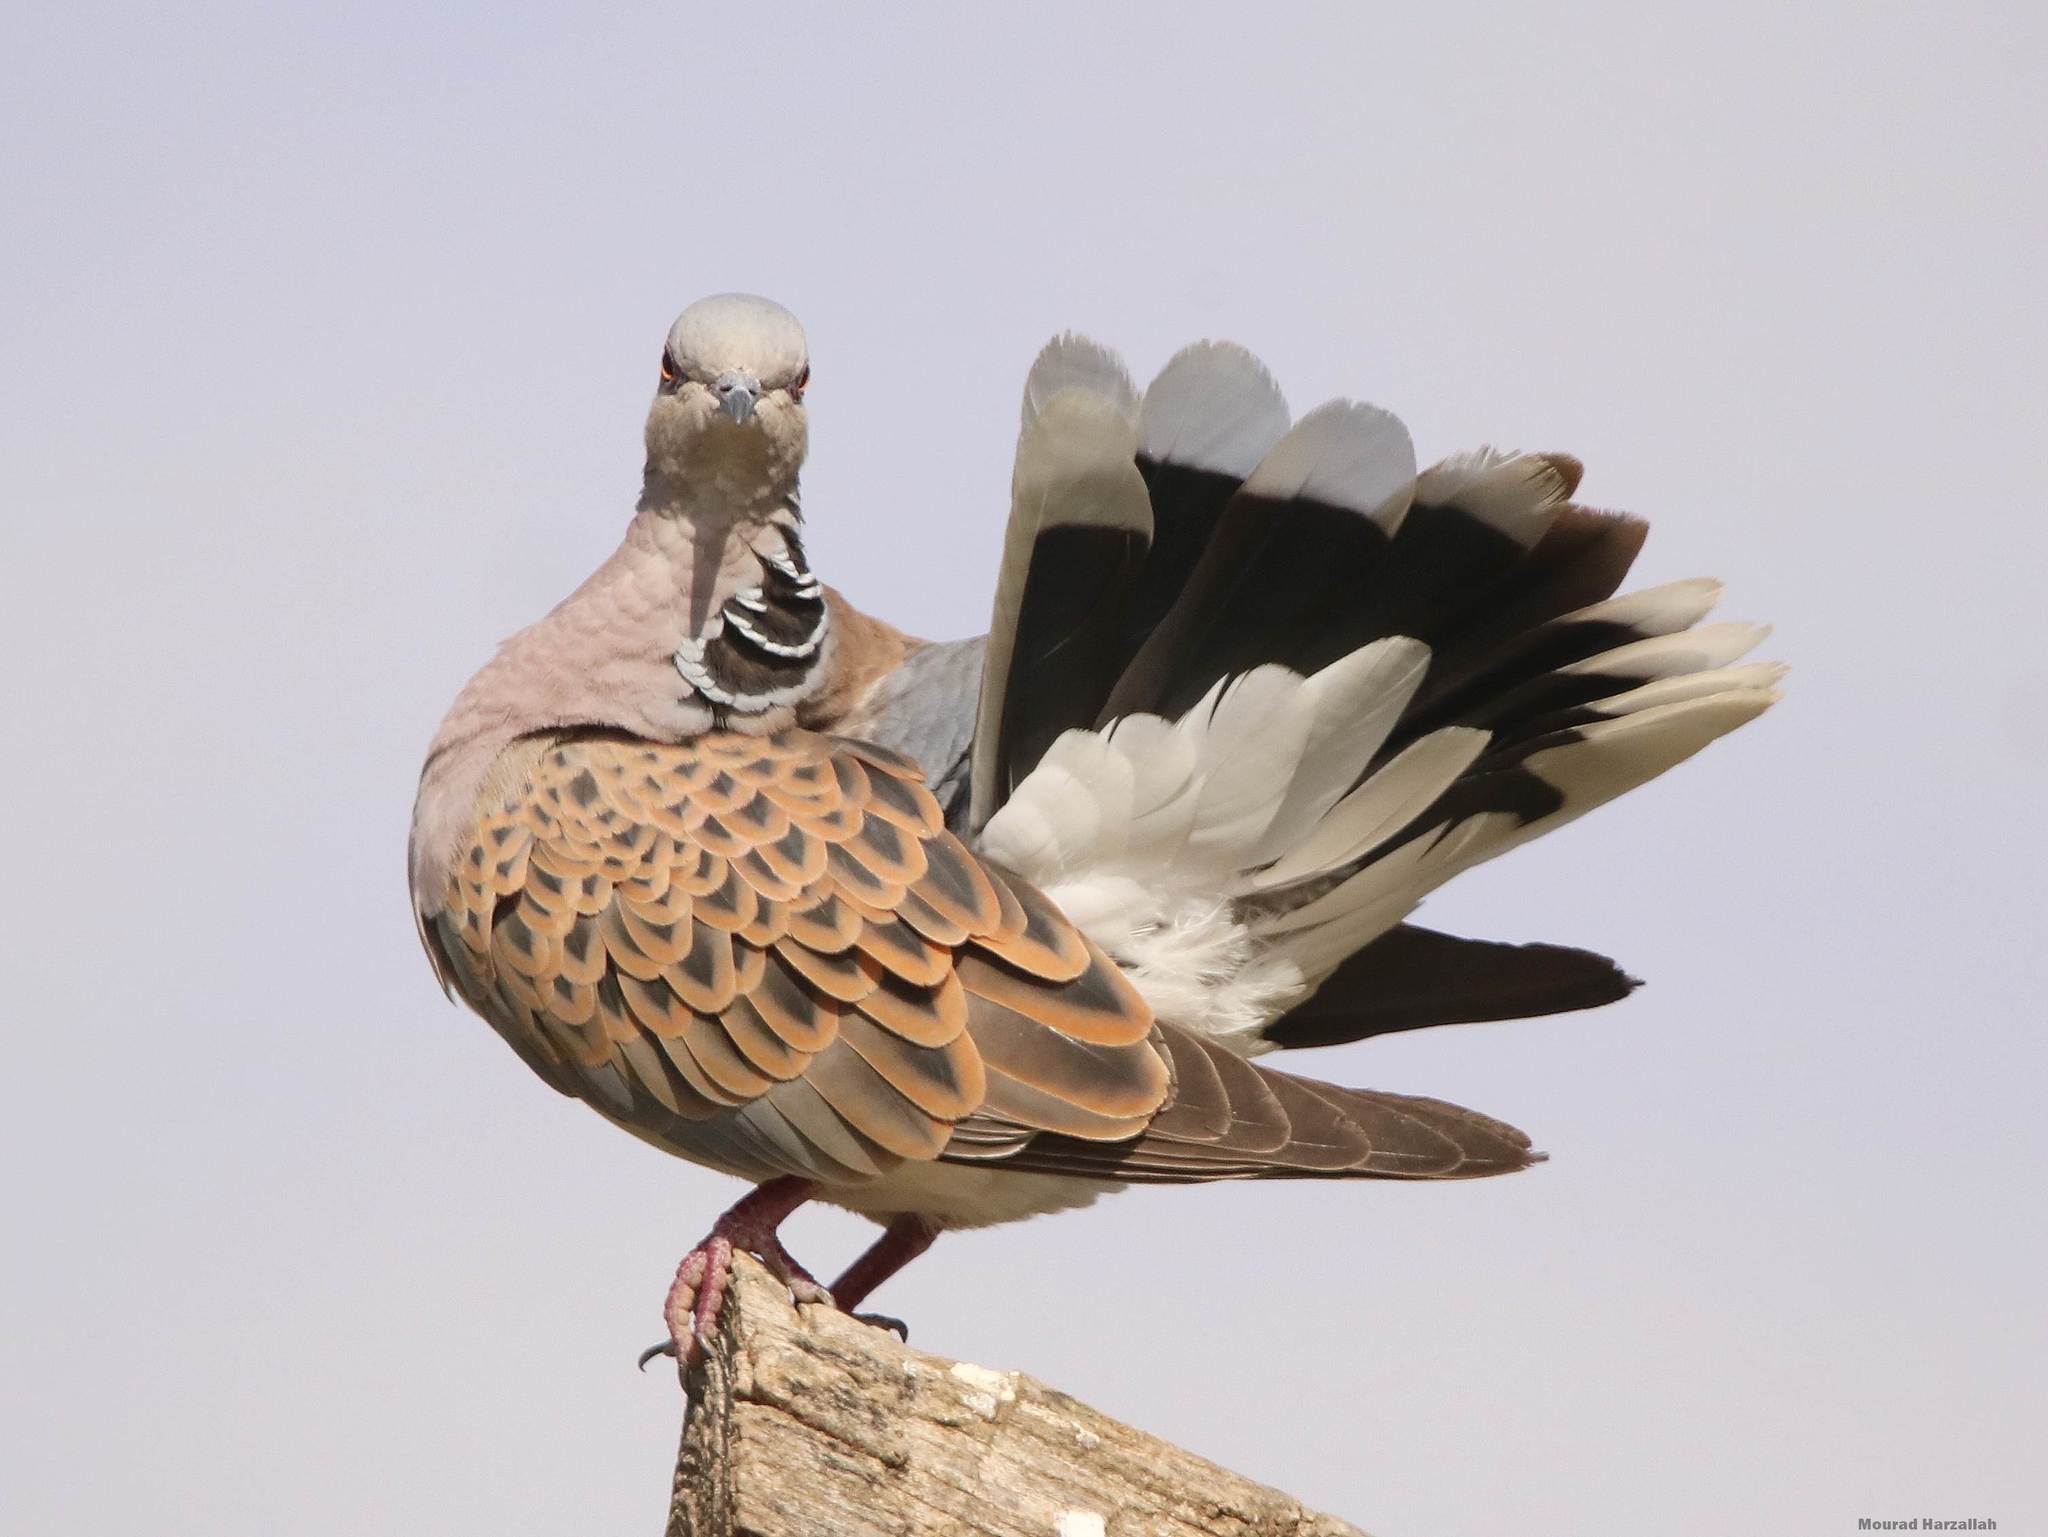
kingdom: Animalia
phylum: Chordata
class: Aves
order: Columbiformes
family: Columbidae
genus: Streptopelia
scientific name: Streptopelia turtur
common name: European turtle dove
